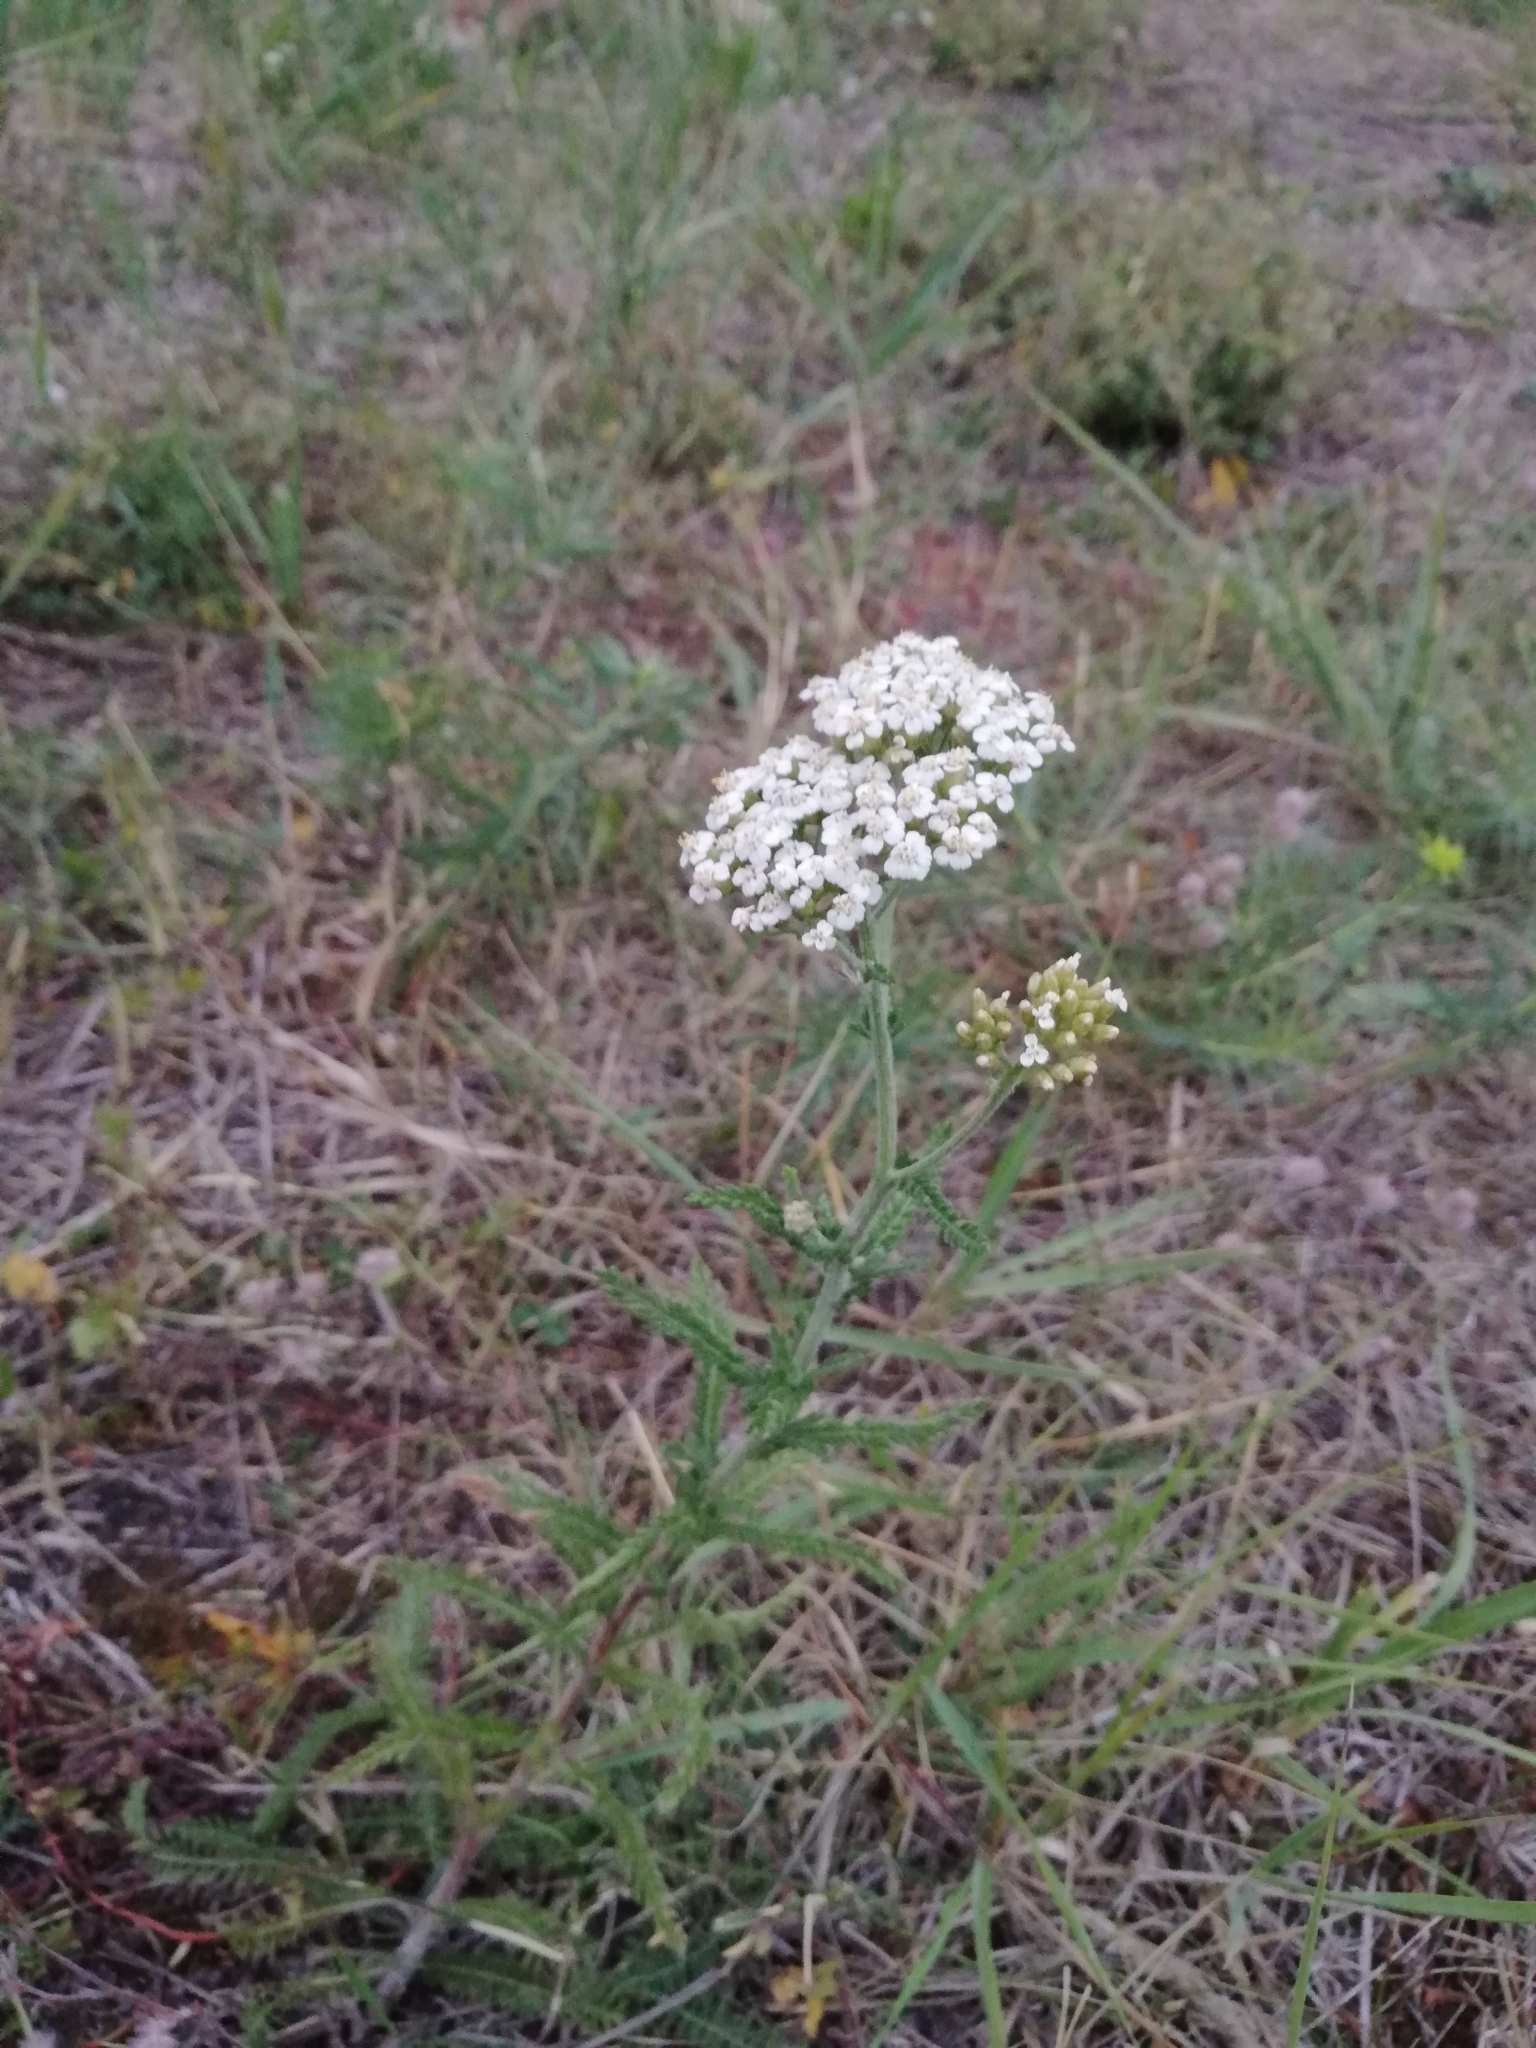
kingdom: Plantae
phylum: Tracheophyta
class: Magnoliopsida
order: Asterales
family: Asteraceae
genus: Achillea
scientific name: Achillea millefolium
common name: Yarrow
